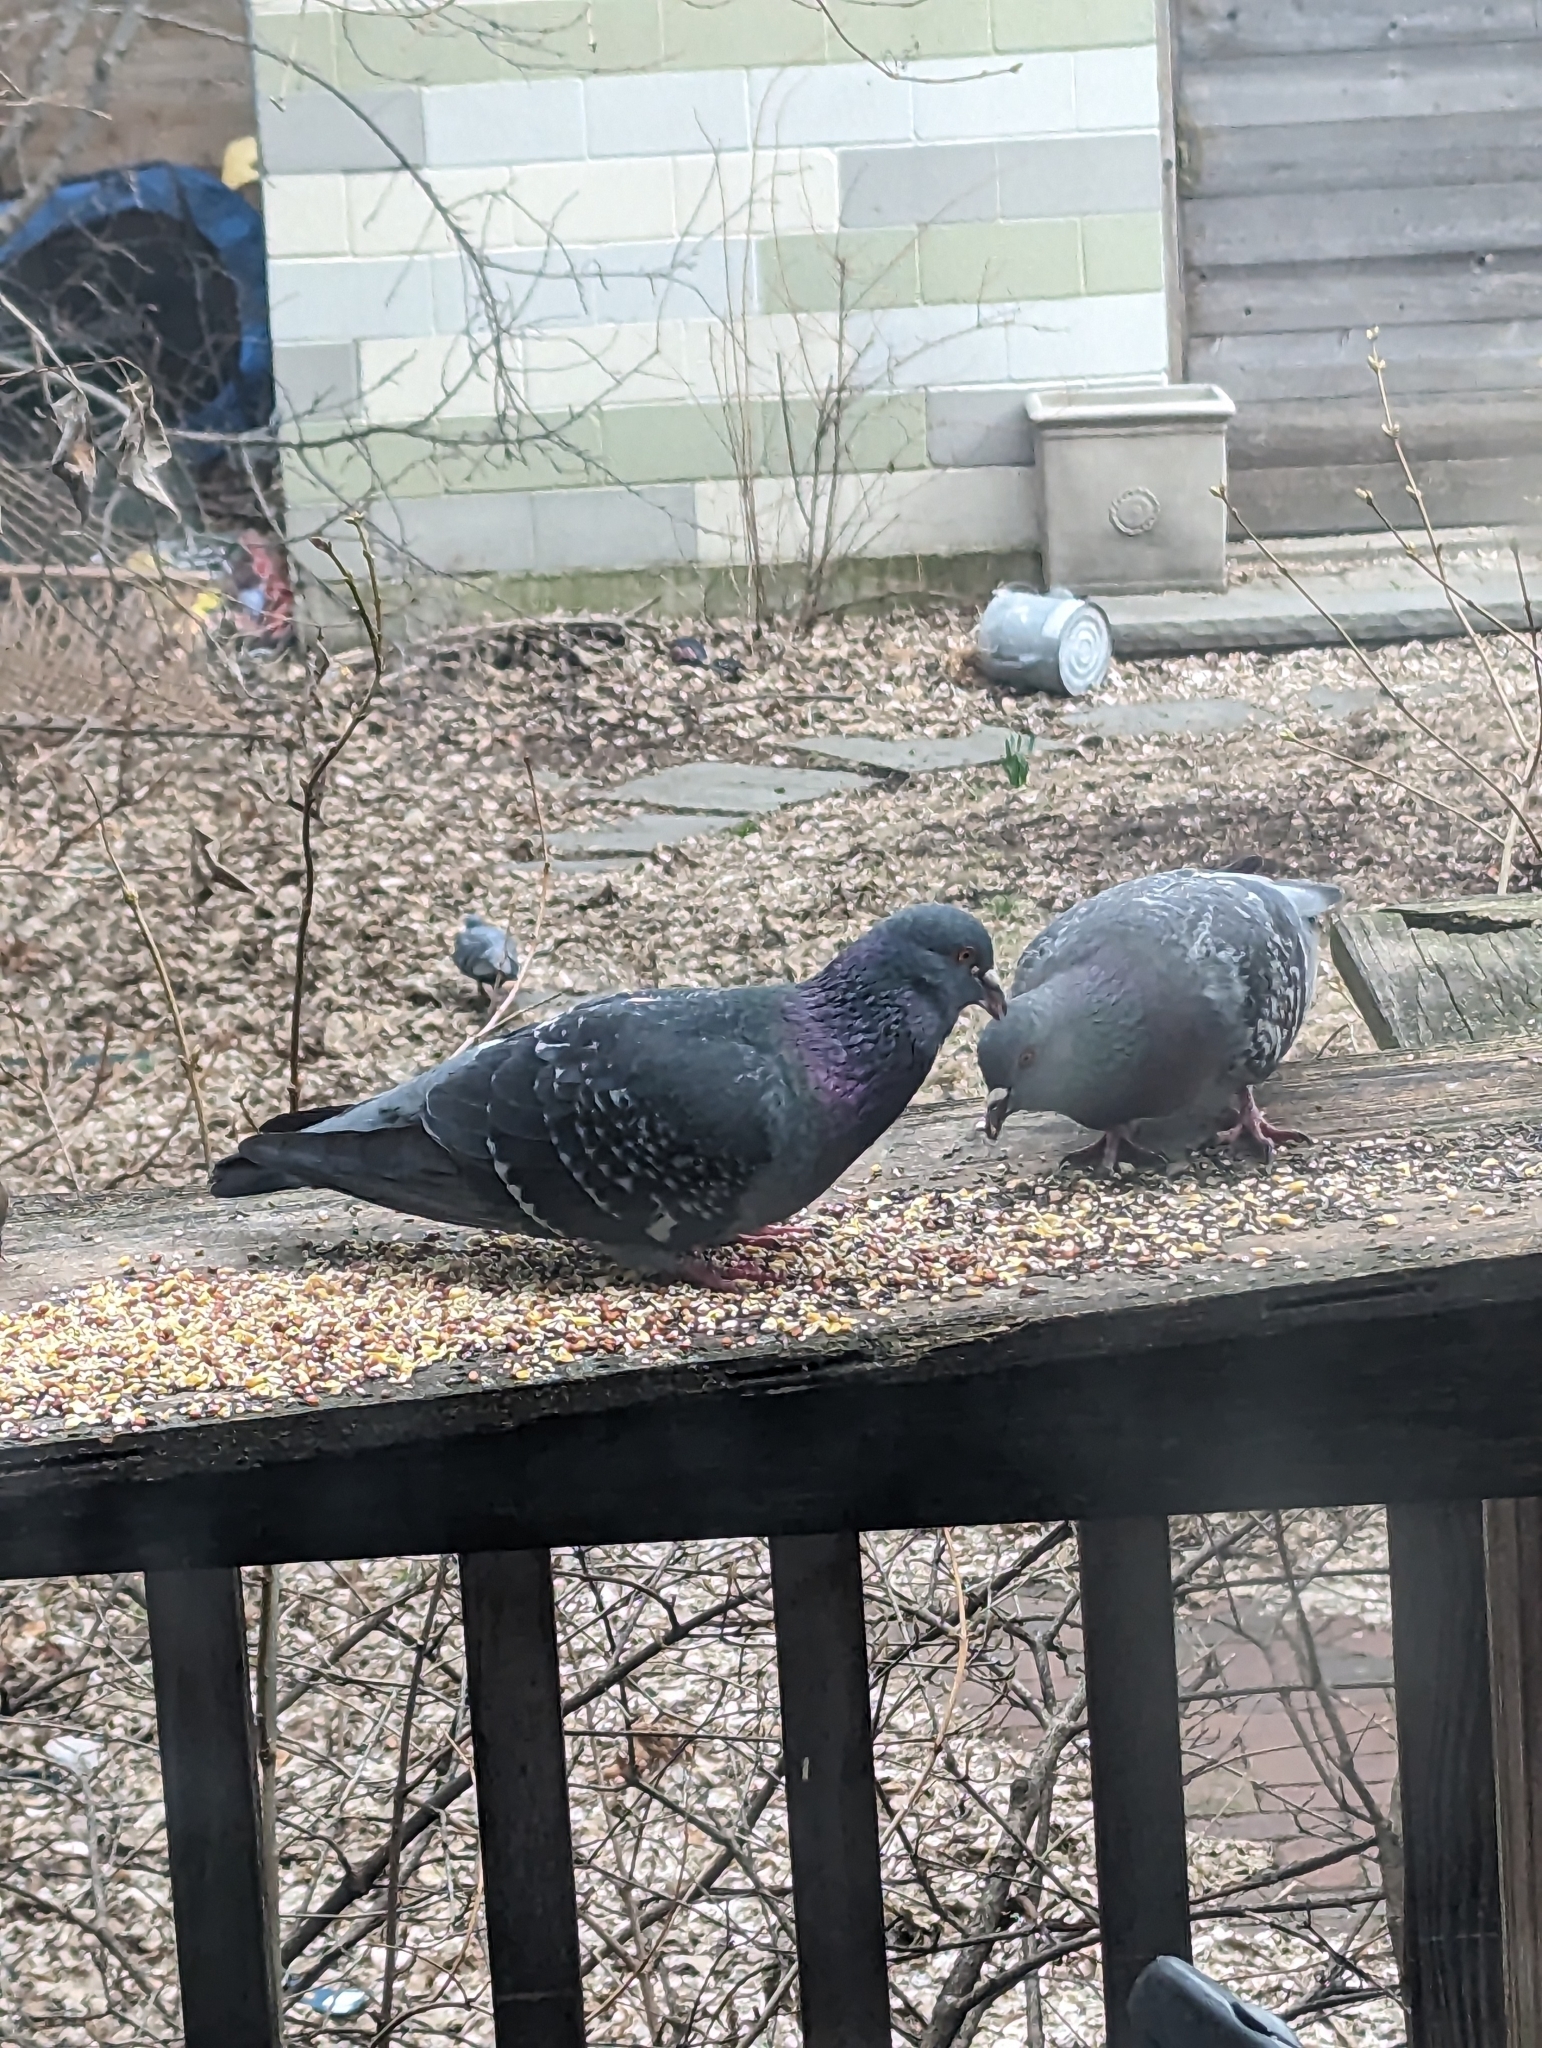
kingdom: Animalia
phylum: Chordata
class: Aves
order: Columbiformes
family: Columbidae
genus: Columba
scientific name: Columba livia
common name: Rock pigeon
